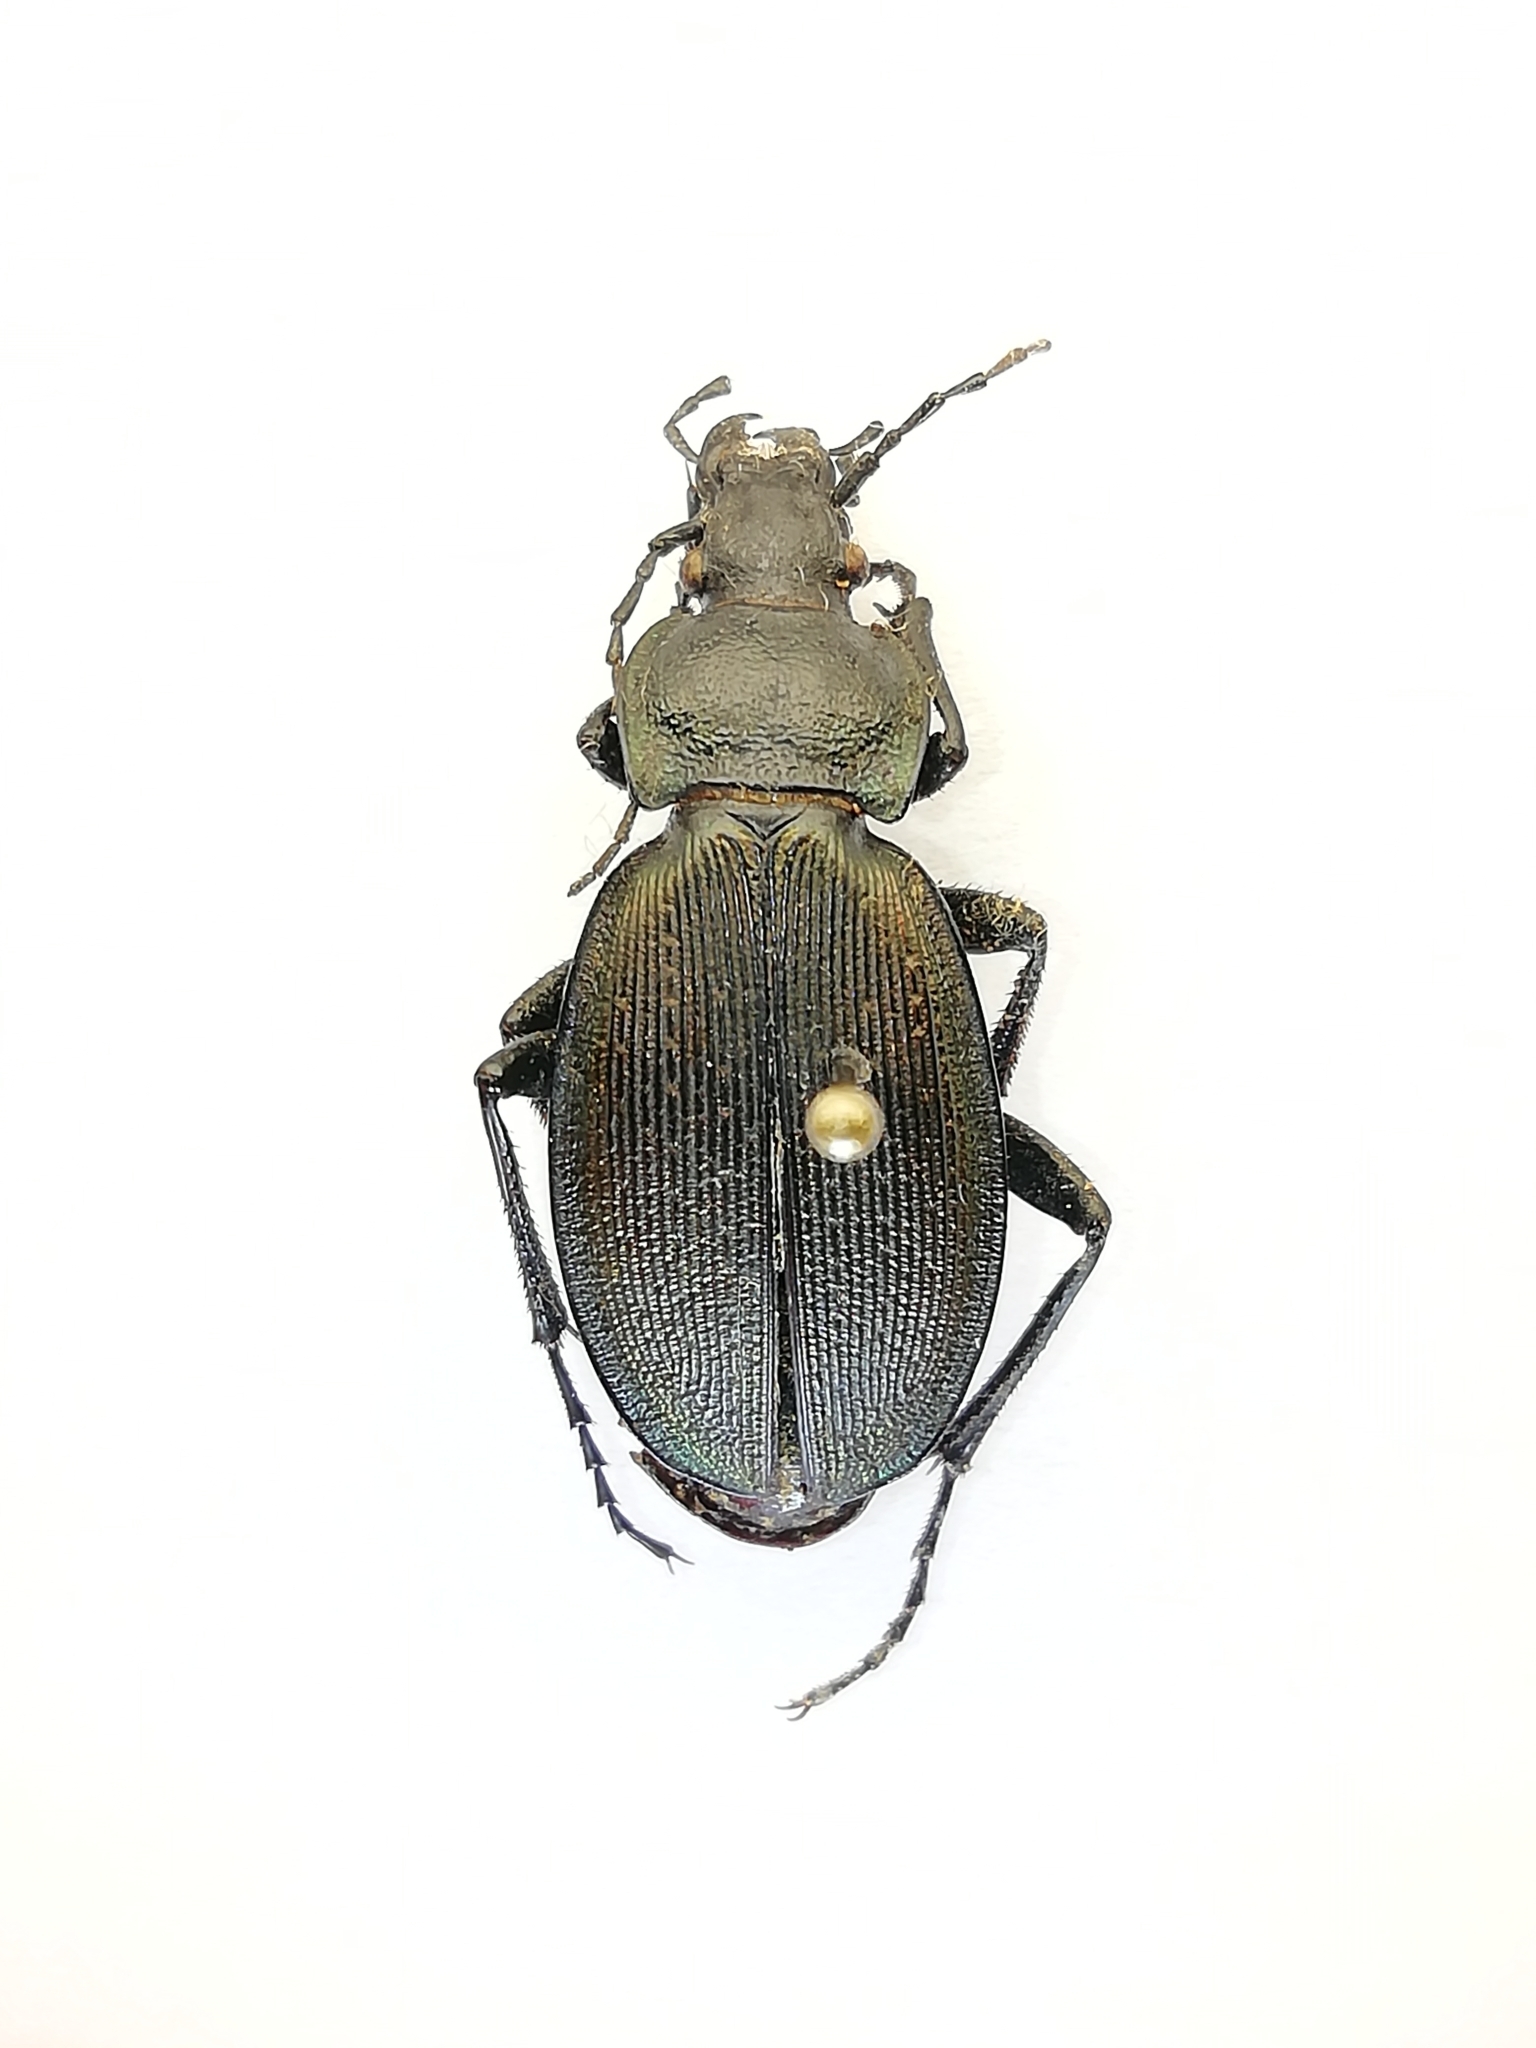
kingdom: Animalia
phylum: Arthropoda
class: Insecta
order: Coleoptera
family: Carabidae
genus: Carabus
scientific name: Carabus regalis
